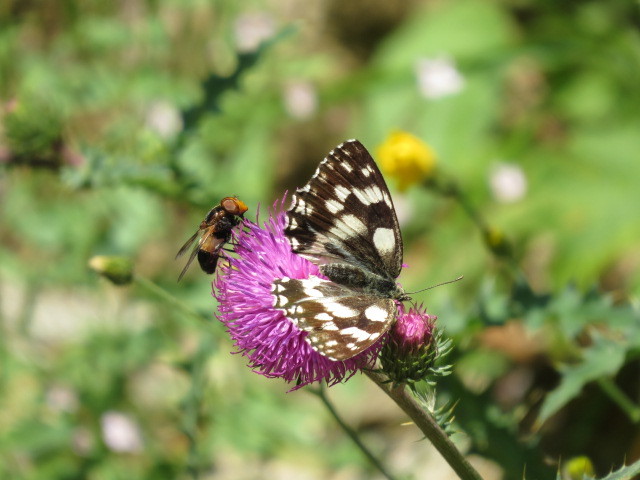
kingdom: Animalia
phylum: Arthropoda
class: Insecta
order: Lepidoptera
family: Nymphalidae
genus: Melanargia
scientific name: Melanargia galathea
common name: Marbled white
